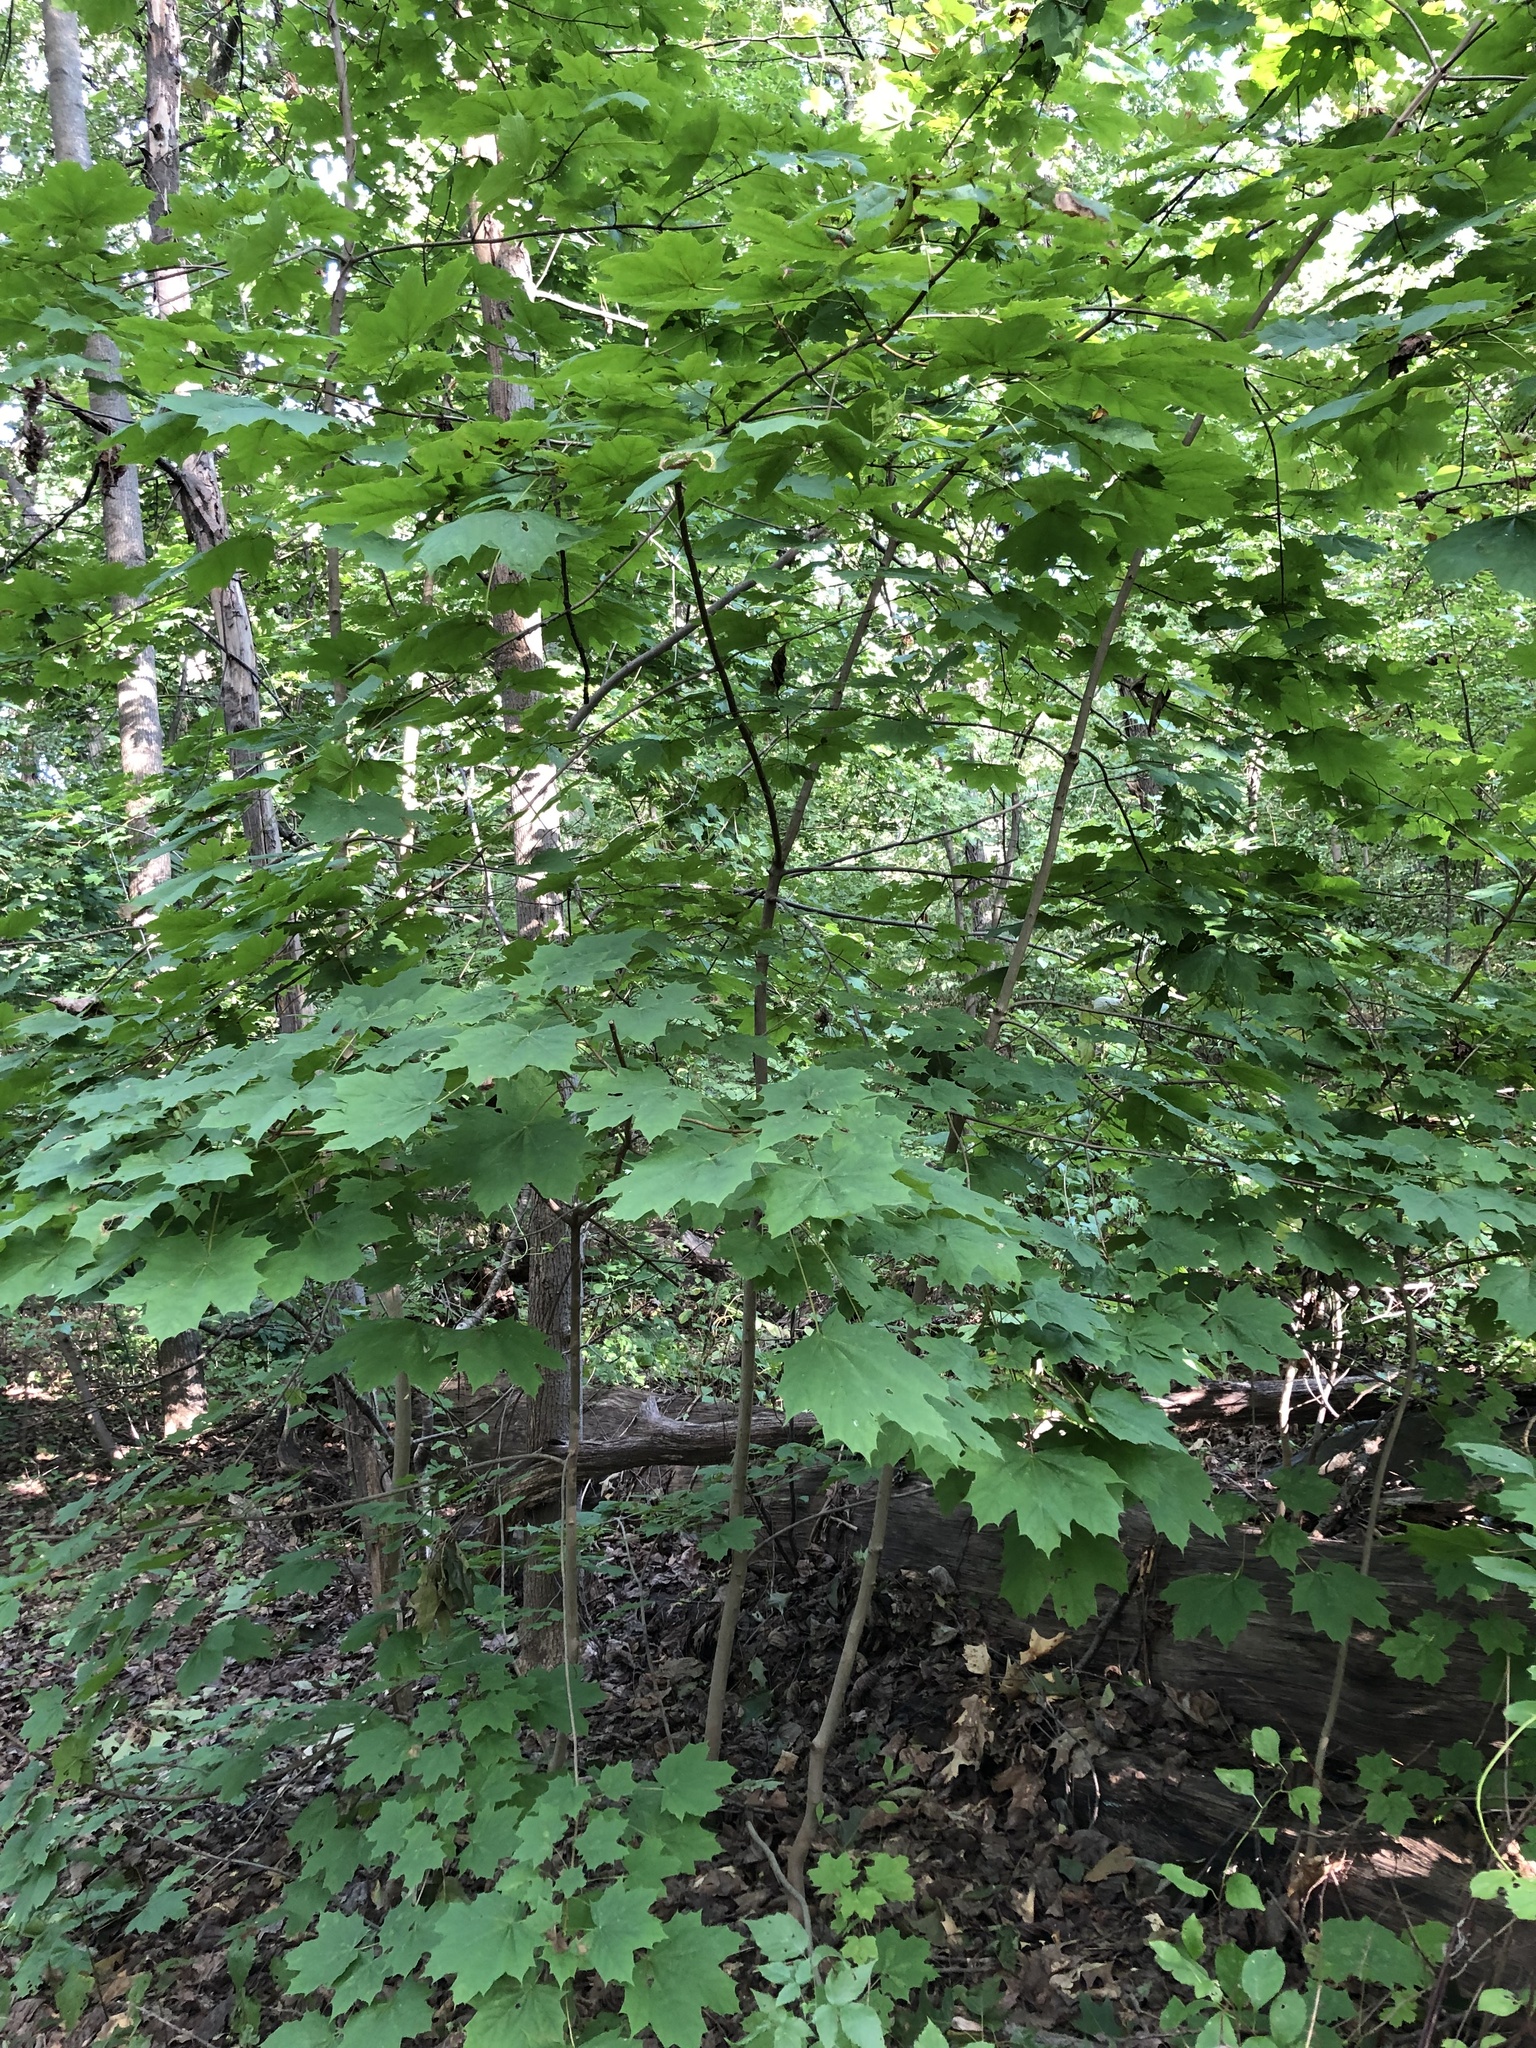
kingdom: Plantae
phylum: Tracheophyta
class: Magnoliopsida
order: Sapindales
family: Sapindaceae
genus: Acer
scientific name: Acer platanoides
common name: Norway maple
